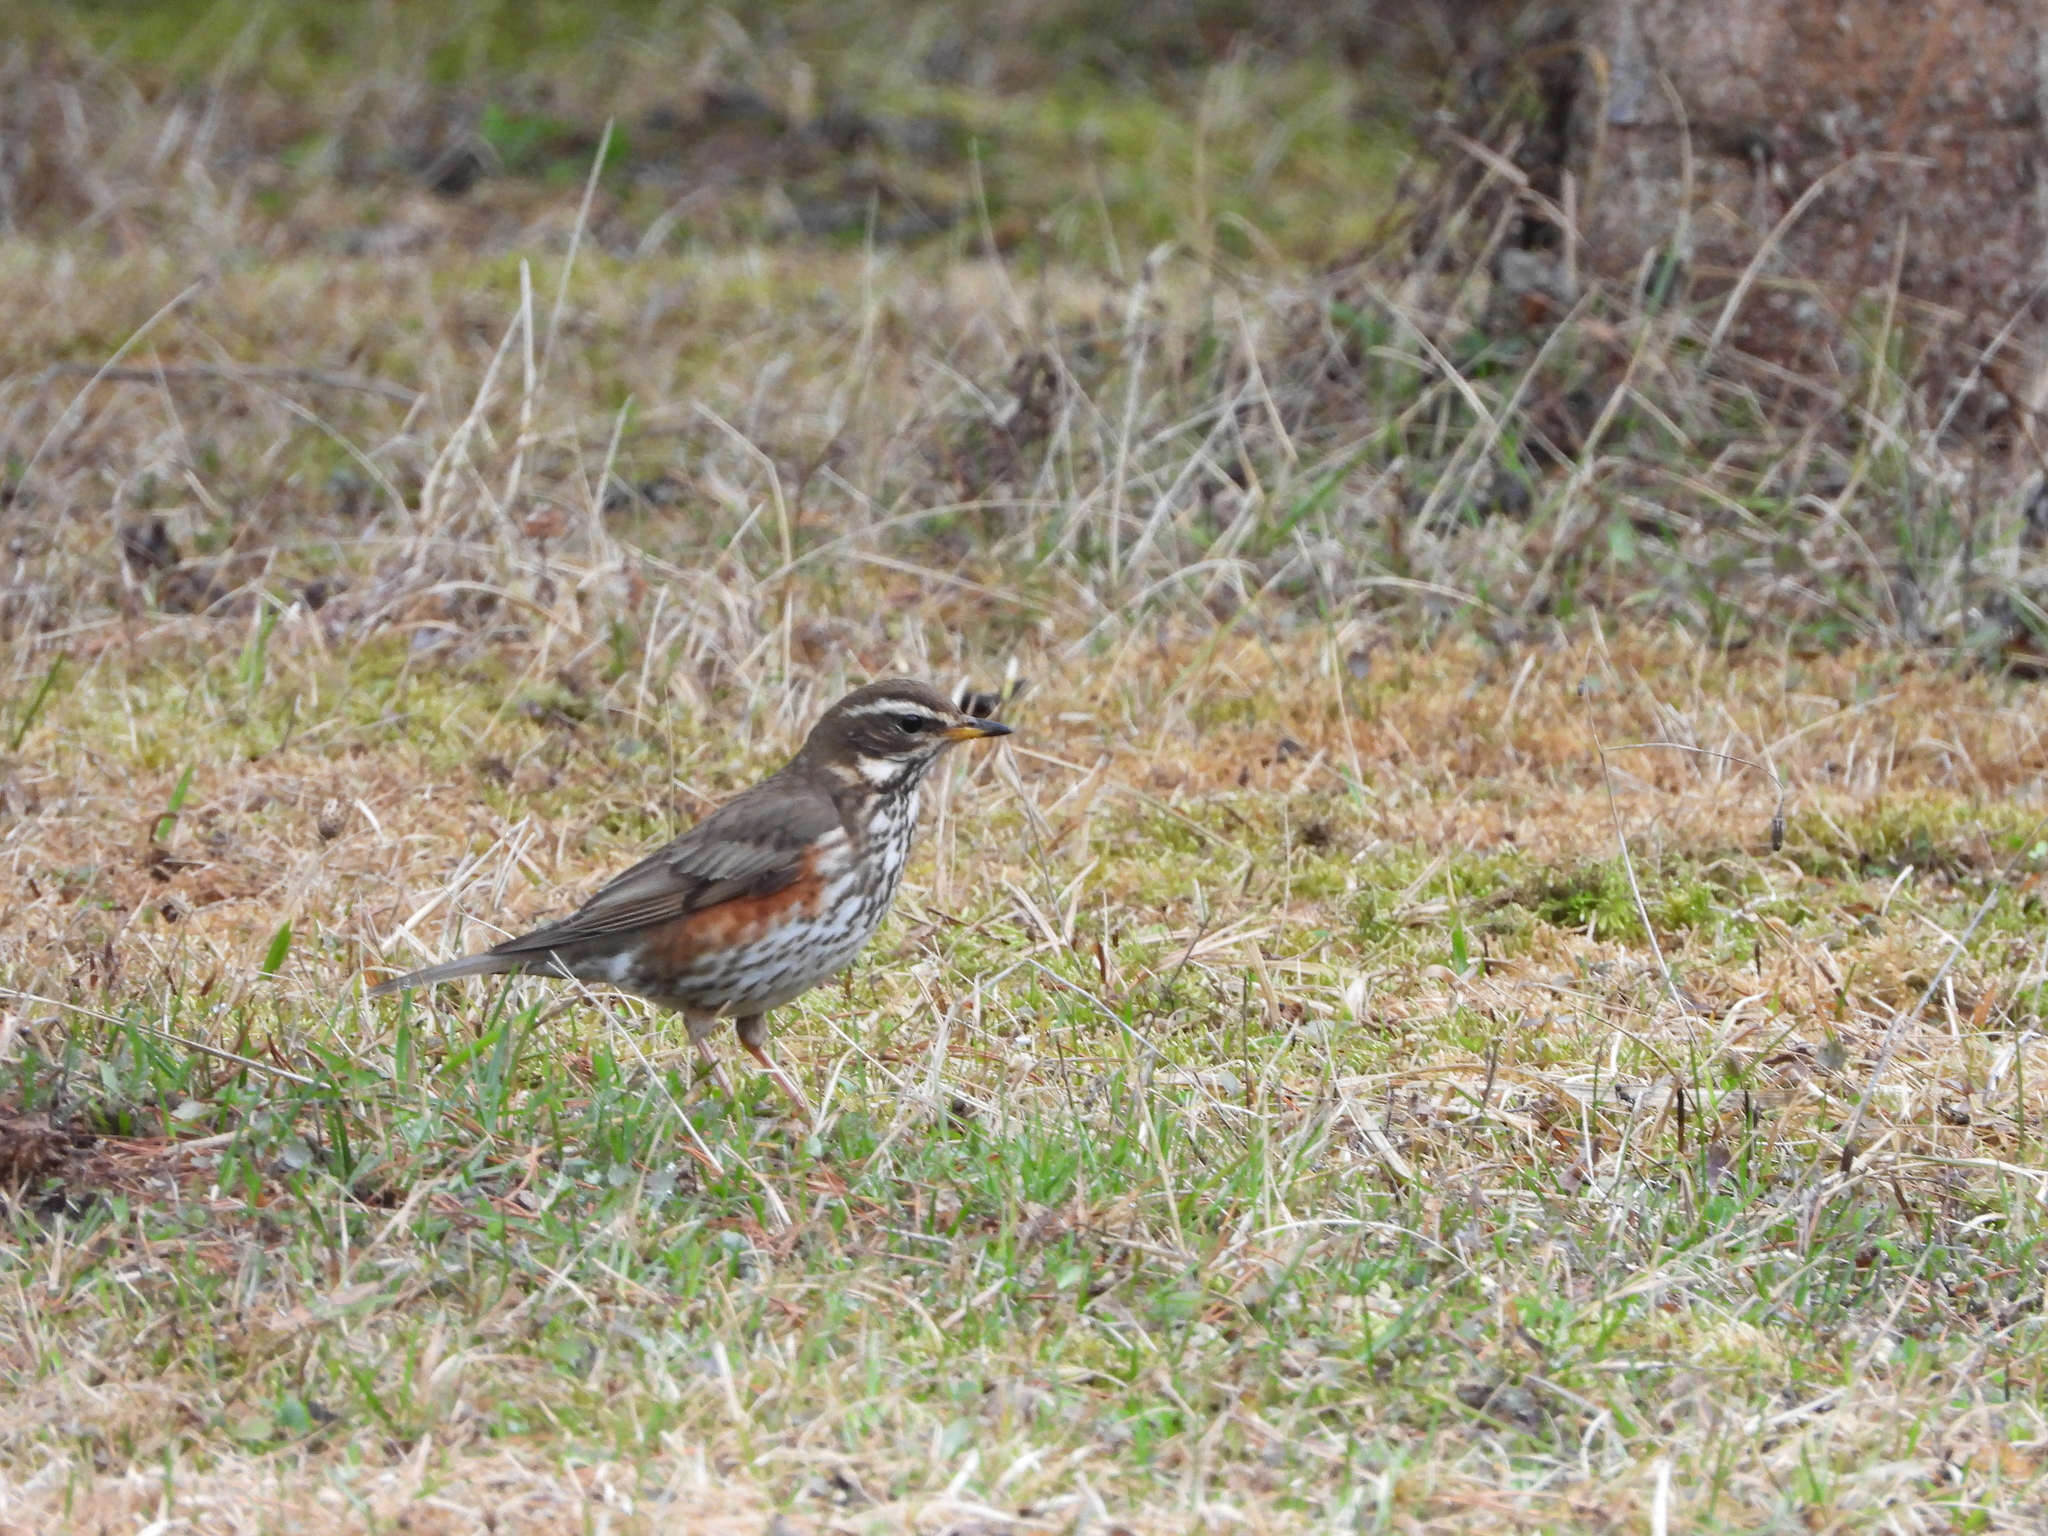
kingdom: Animalia
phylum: Chordata
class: Aves
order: Passeriformes
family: Turdidae
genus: Turdus
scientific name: Turdus iliacus
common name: Redwing
